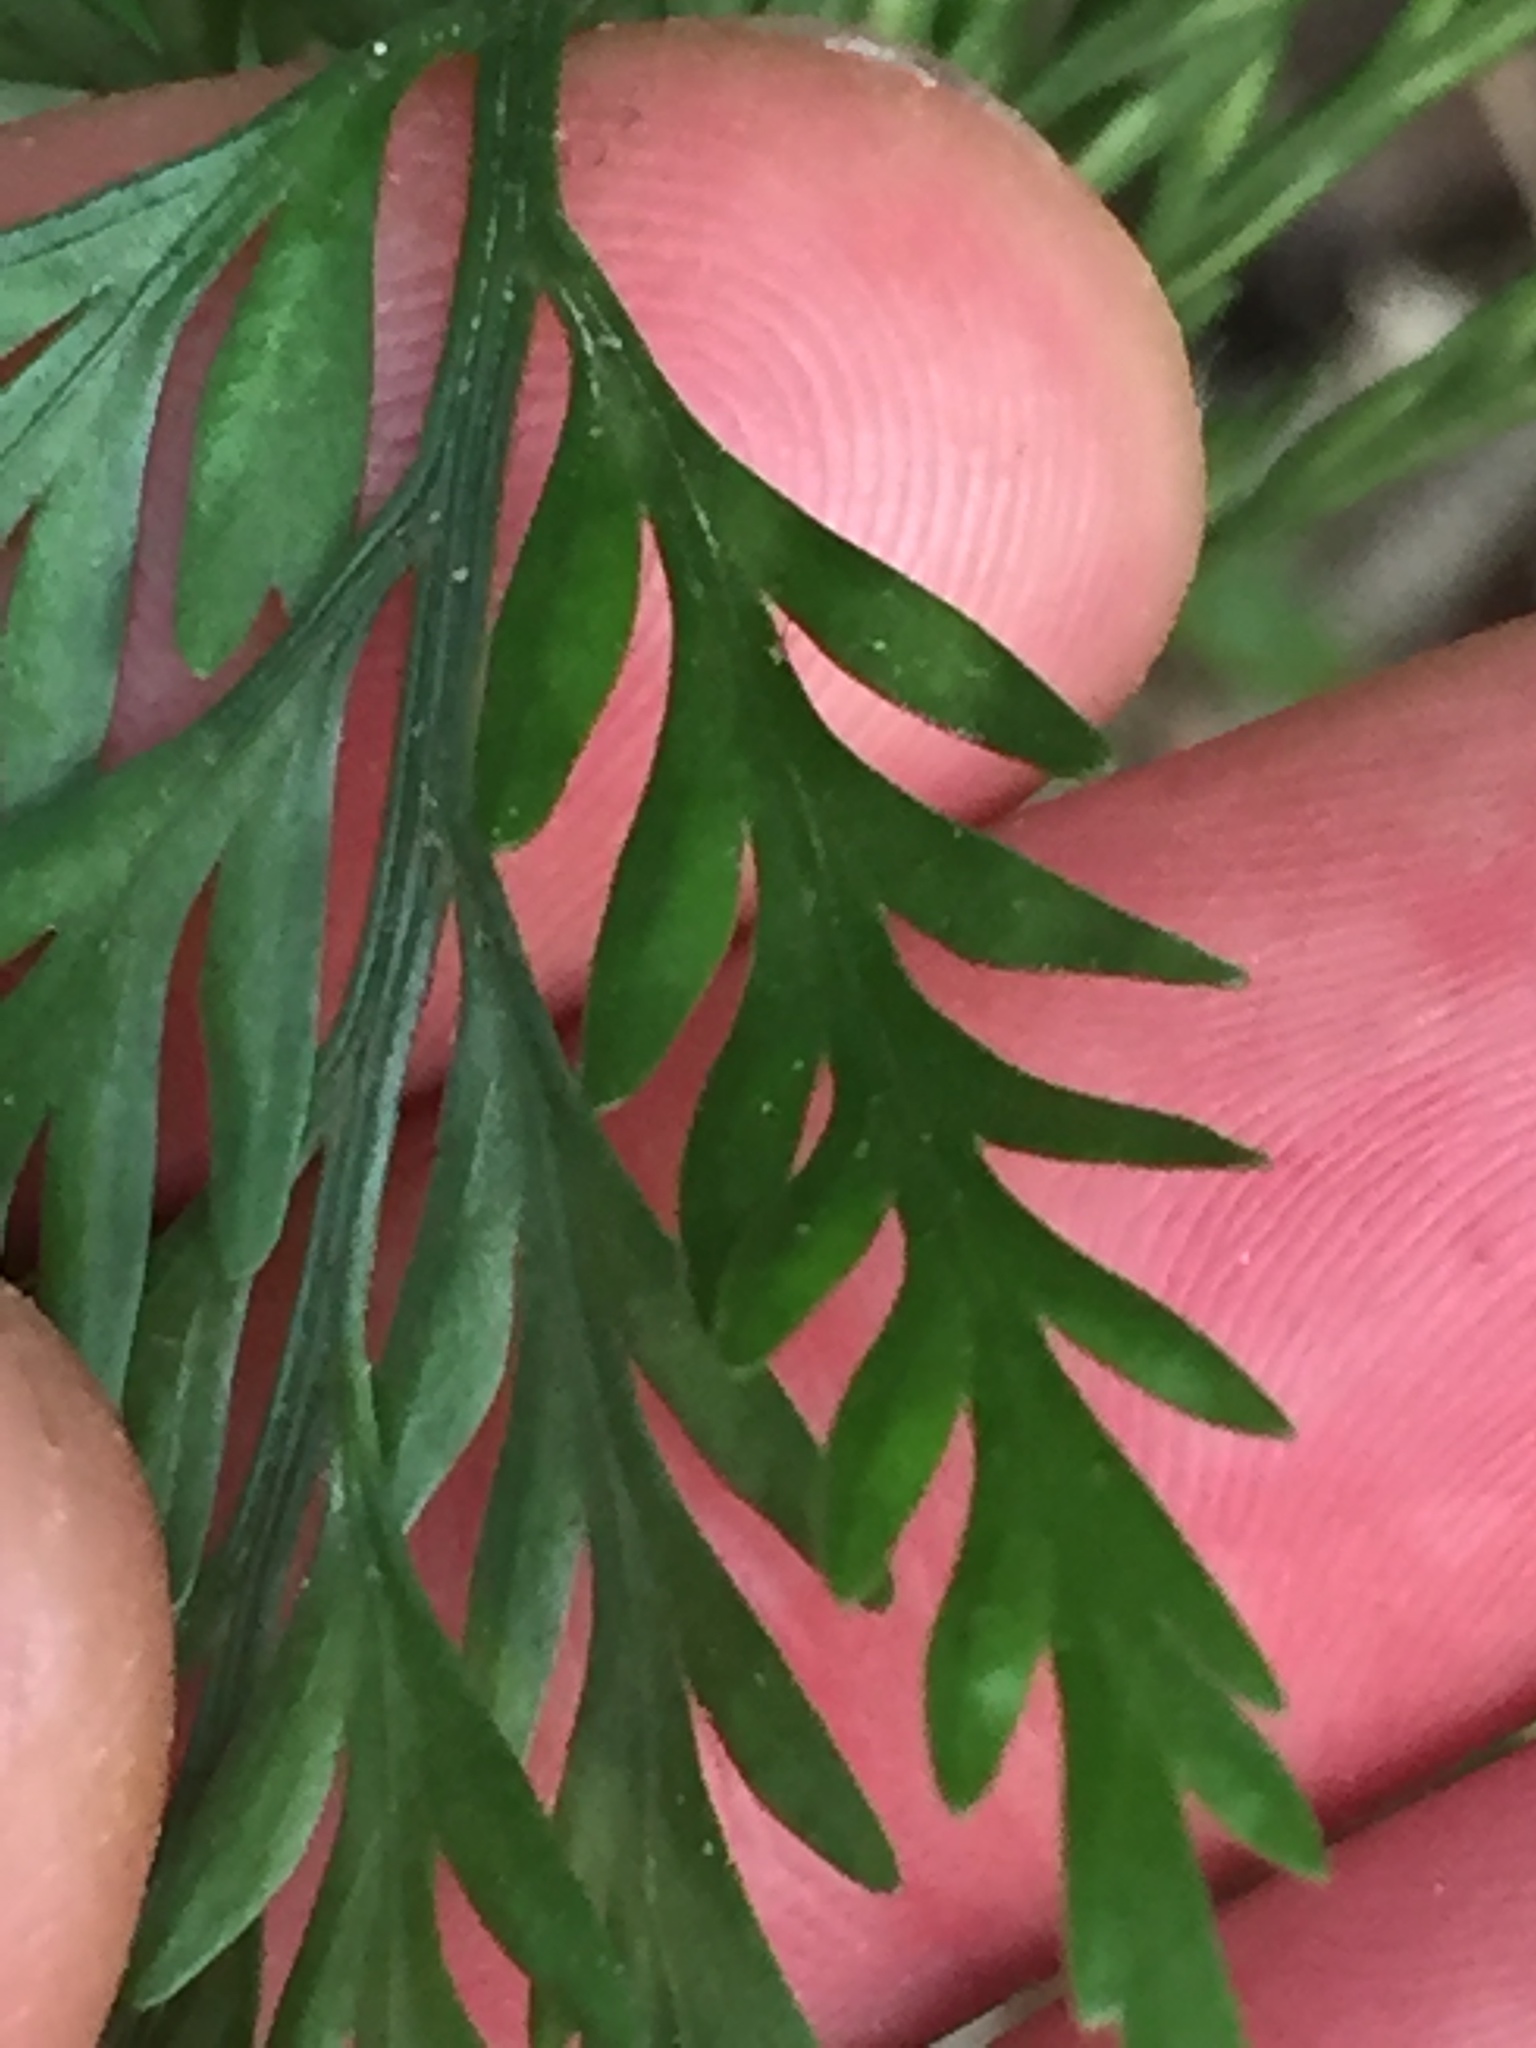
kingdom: Plantae
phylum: Tracheophyta
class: Polypodiopsida
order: Polypodiales
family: Aspleniaceae
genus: Asplenium
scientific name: Asplenium appendiculatum
